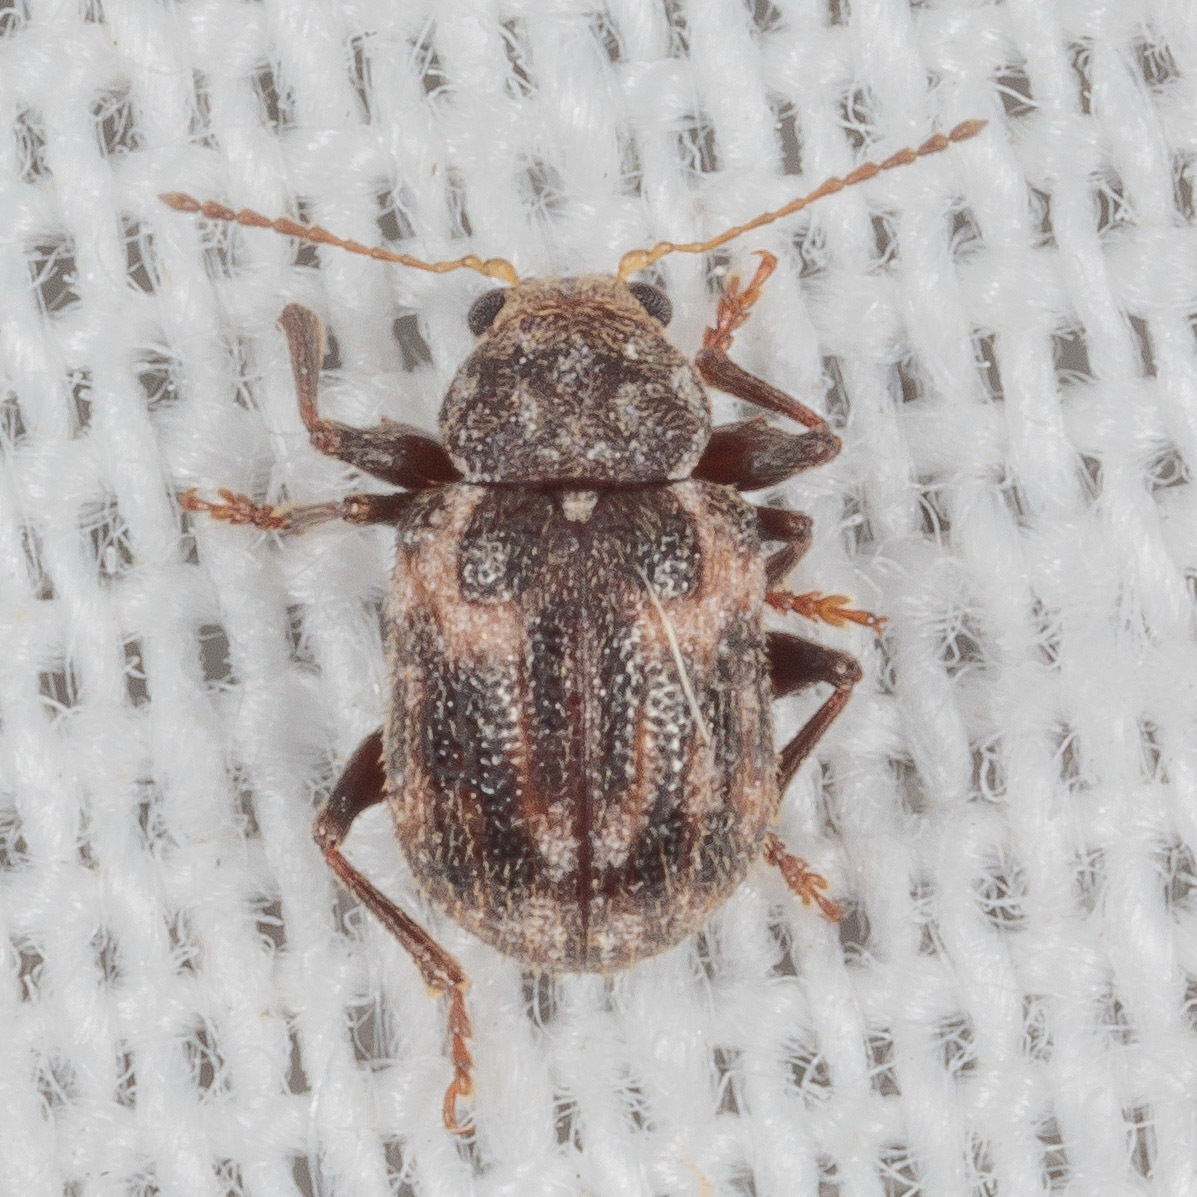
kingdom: Animalia
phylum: Arthropoda
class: Insecta
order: Coleoptera
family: Chrysomelidae
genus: Xanthonia
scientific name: Xanthonia picturata
